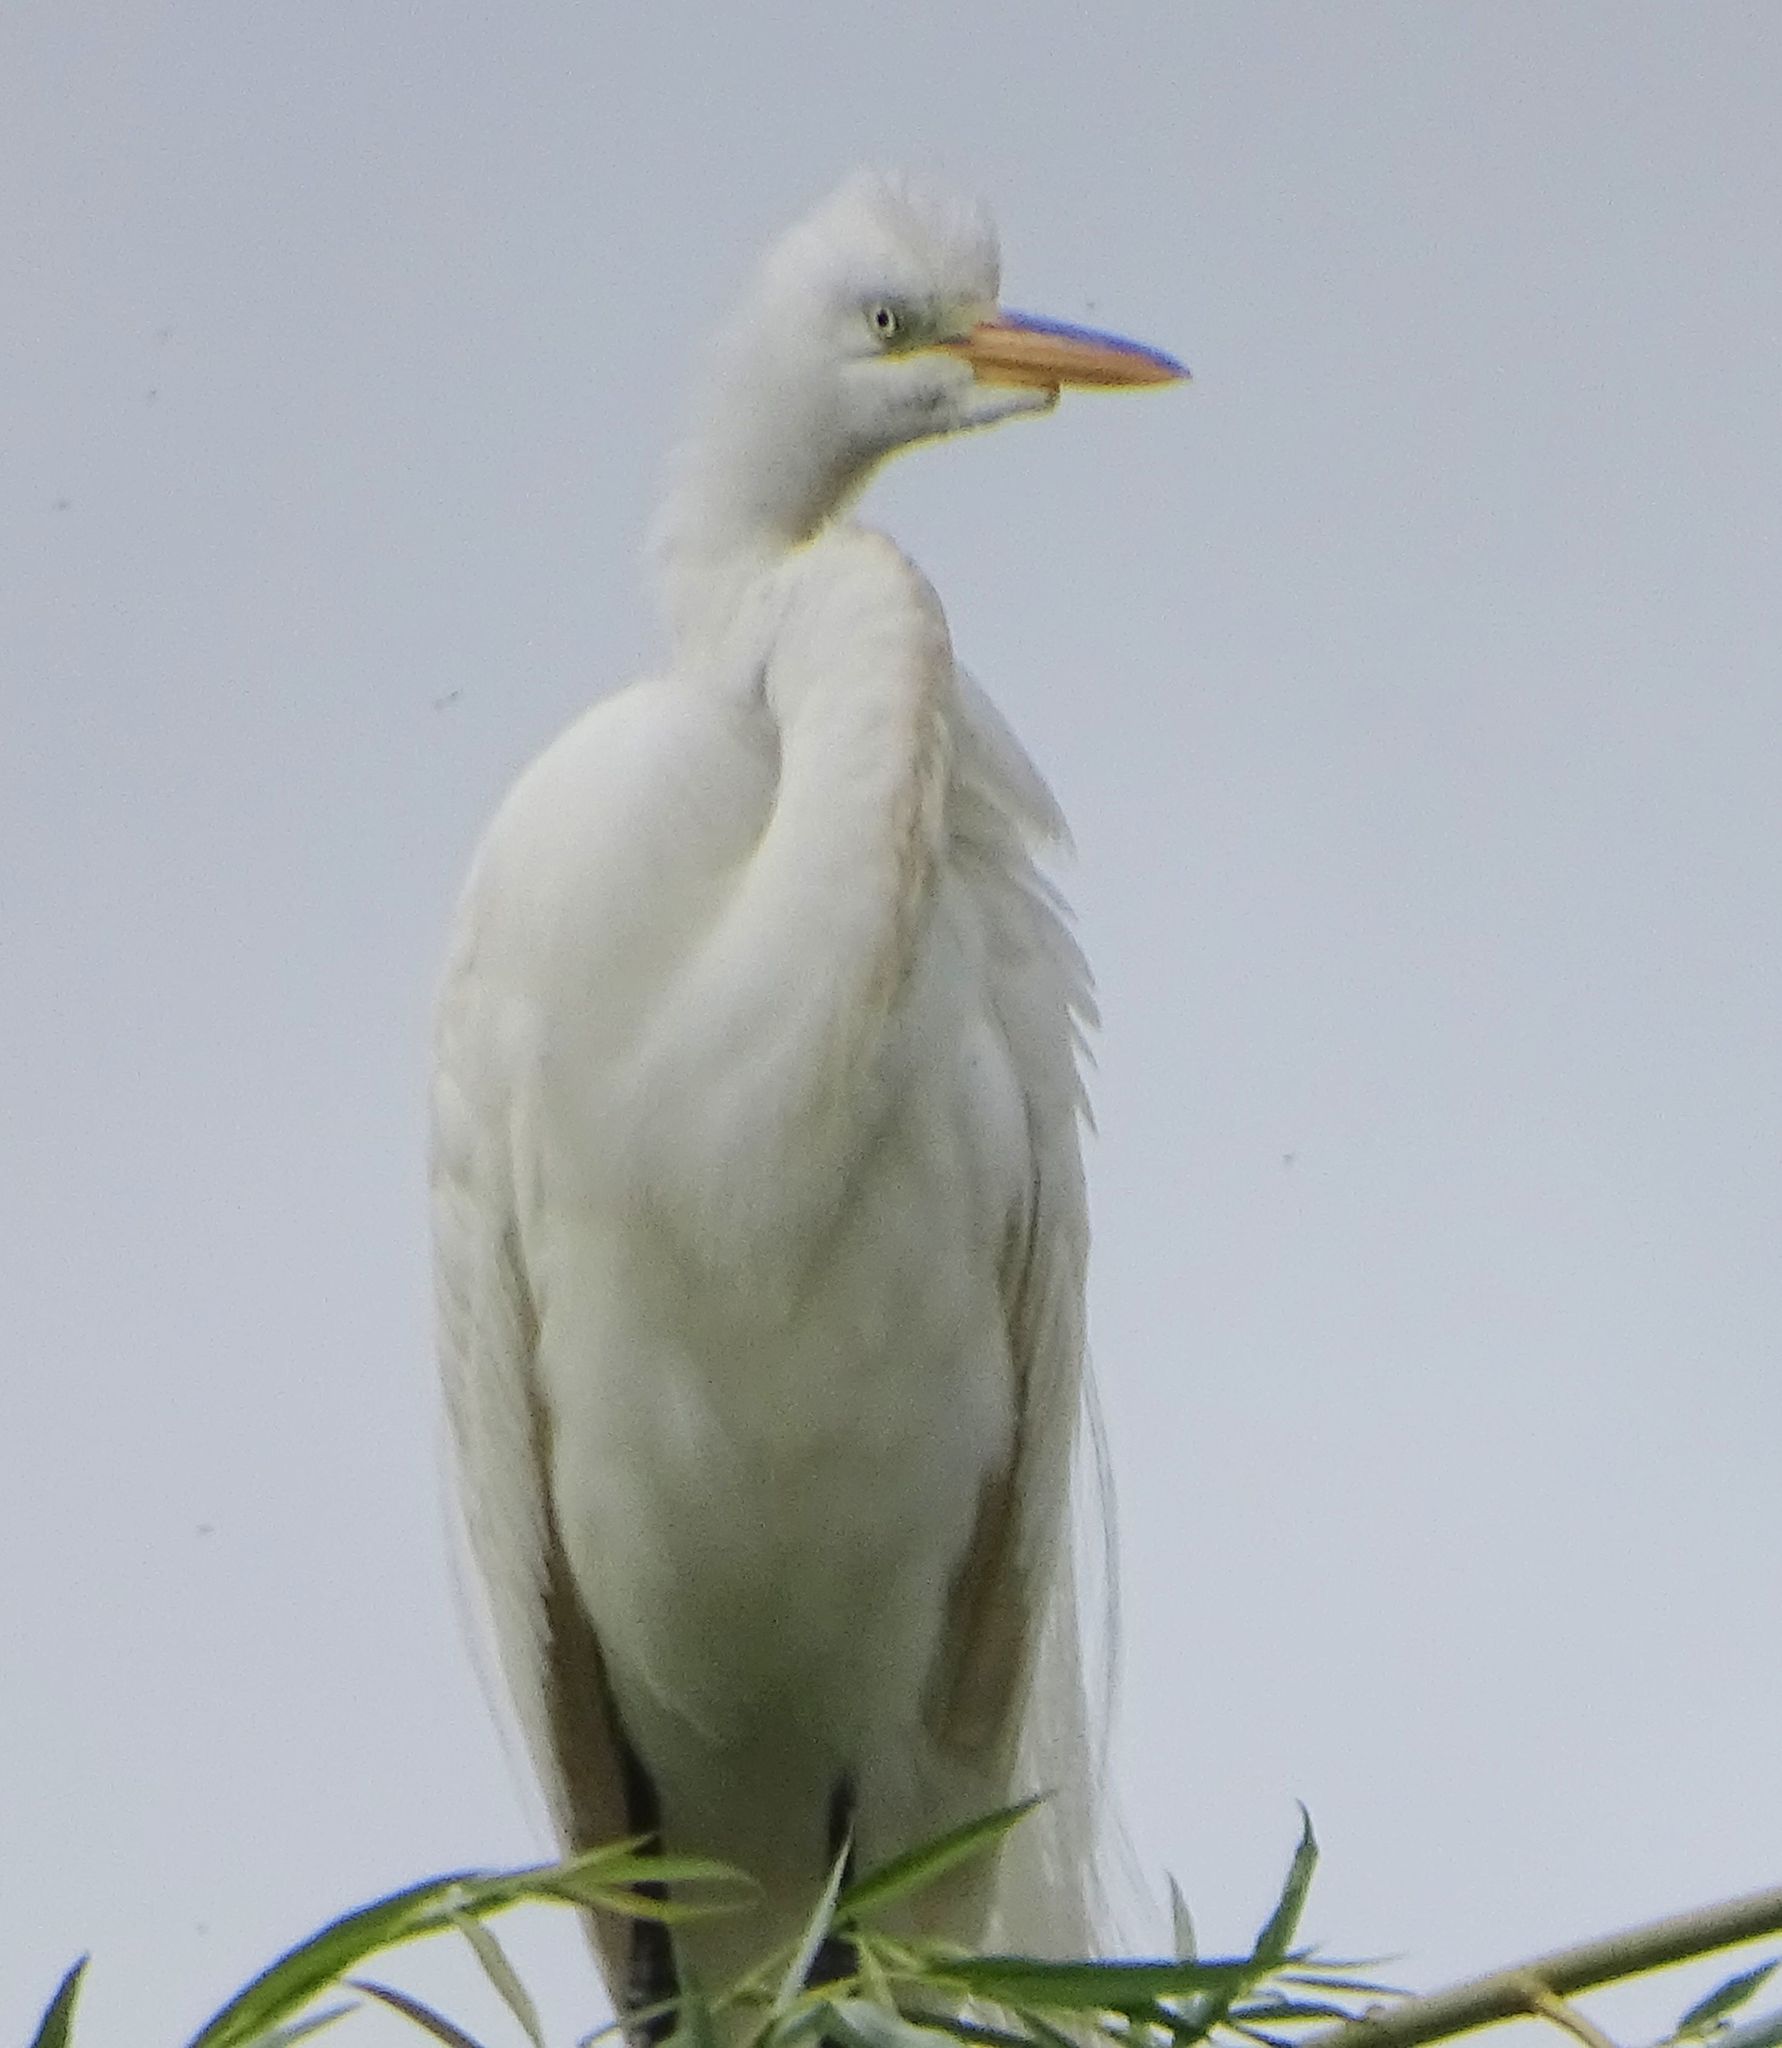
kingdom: Animalia
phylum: Chordata
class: Aves
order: Pelecaniformes
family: Ardeidae
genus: Ardea
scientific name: Ardea alba
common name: Great egret
